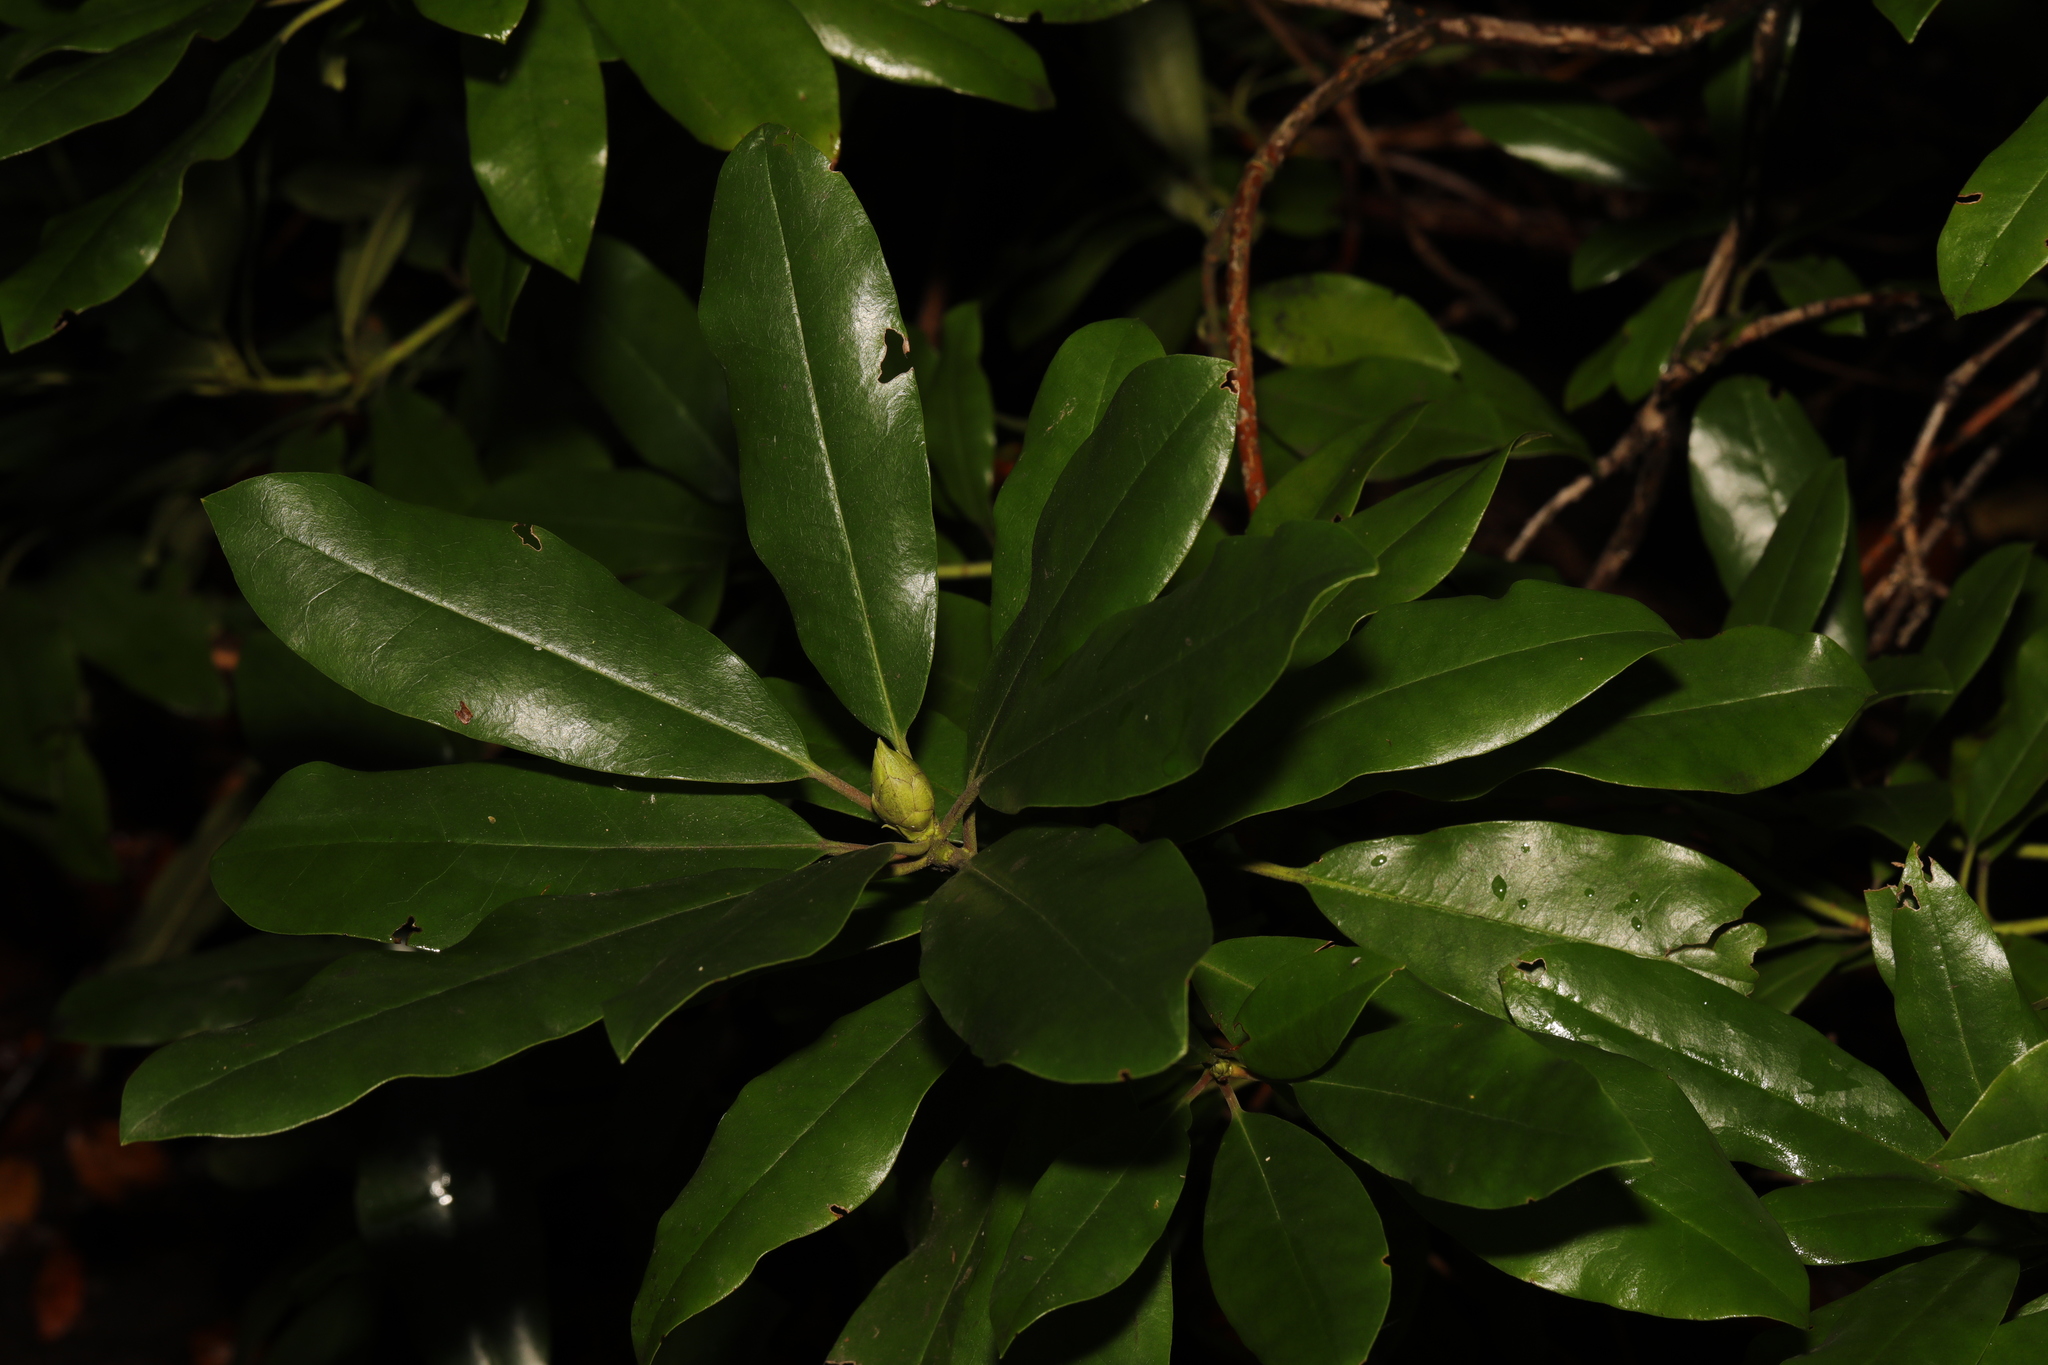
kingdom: Plantae
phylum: Tracheophyta
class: Magnoliopsida
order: Ericales
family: Ericaceae
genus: Rhododendron
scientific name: Rhododendron ponticum
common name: Rhododendron
